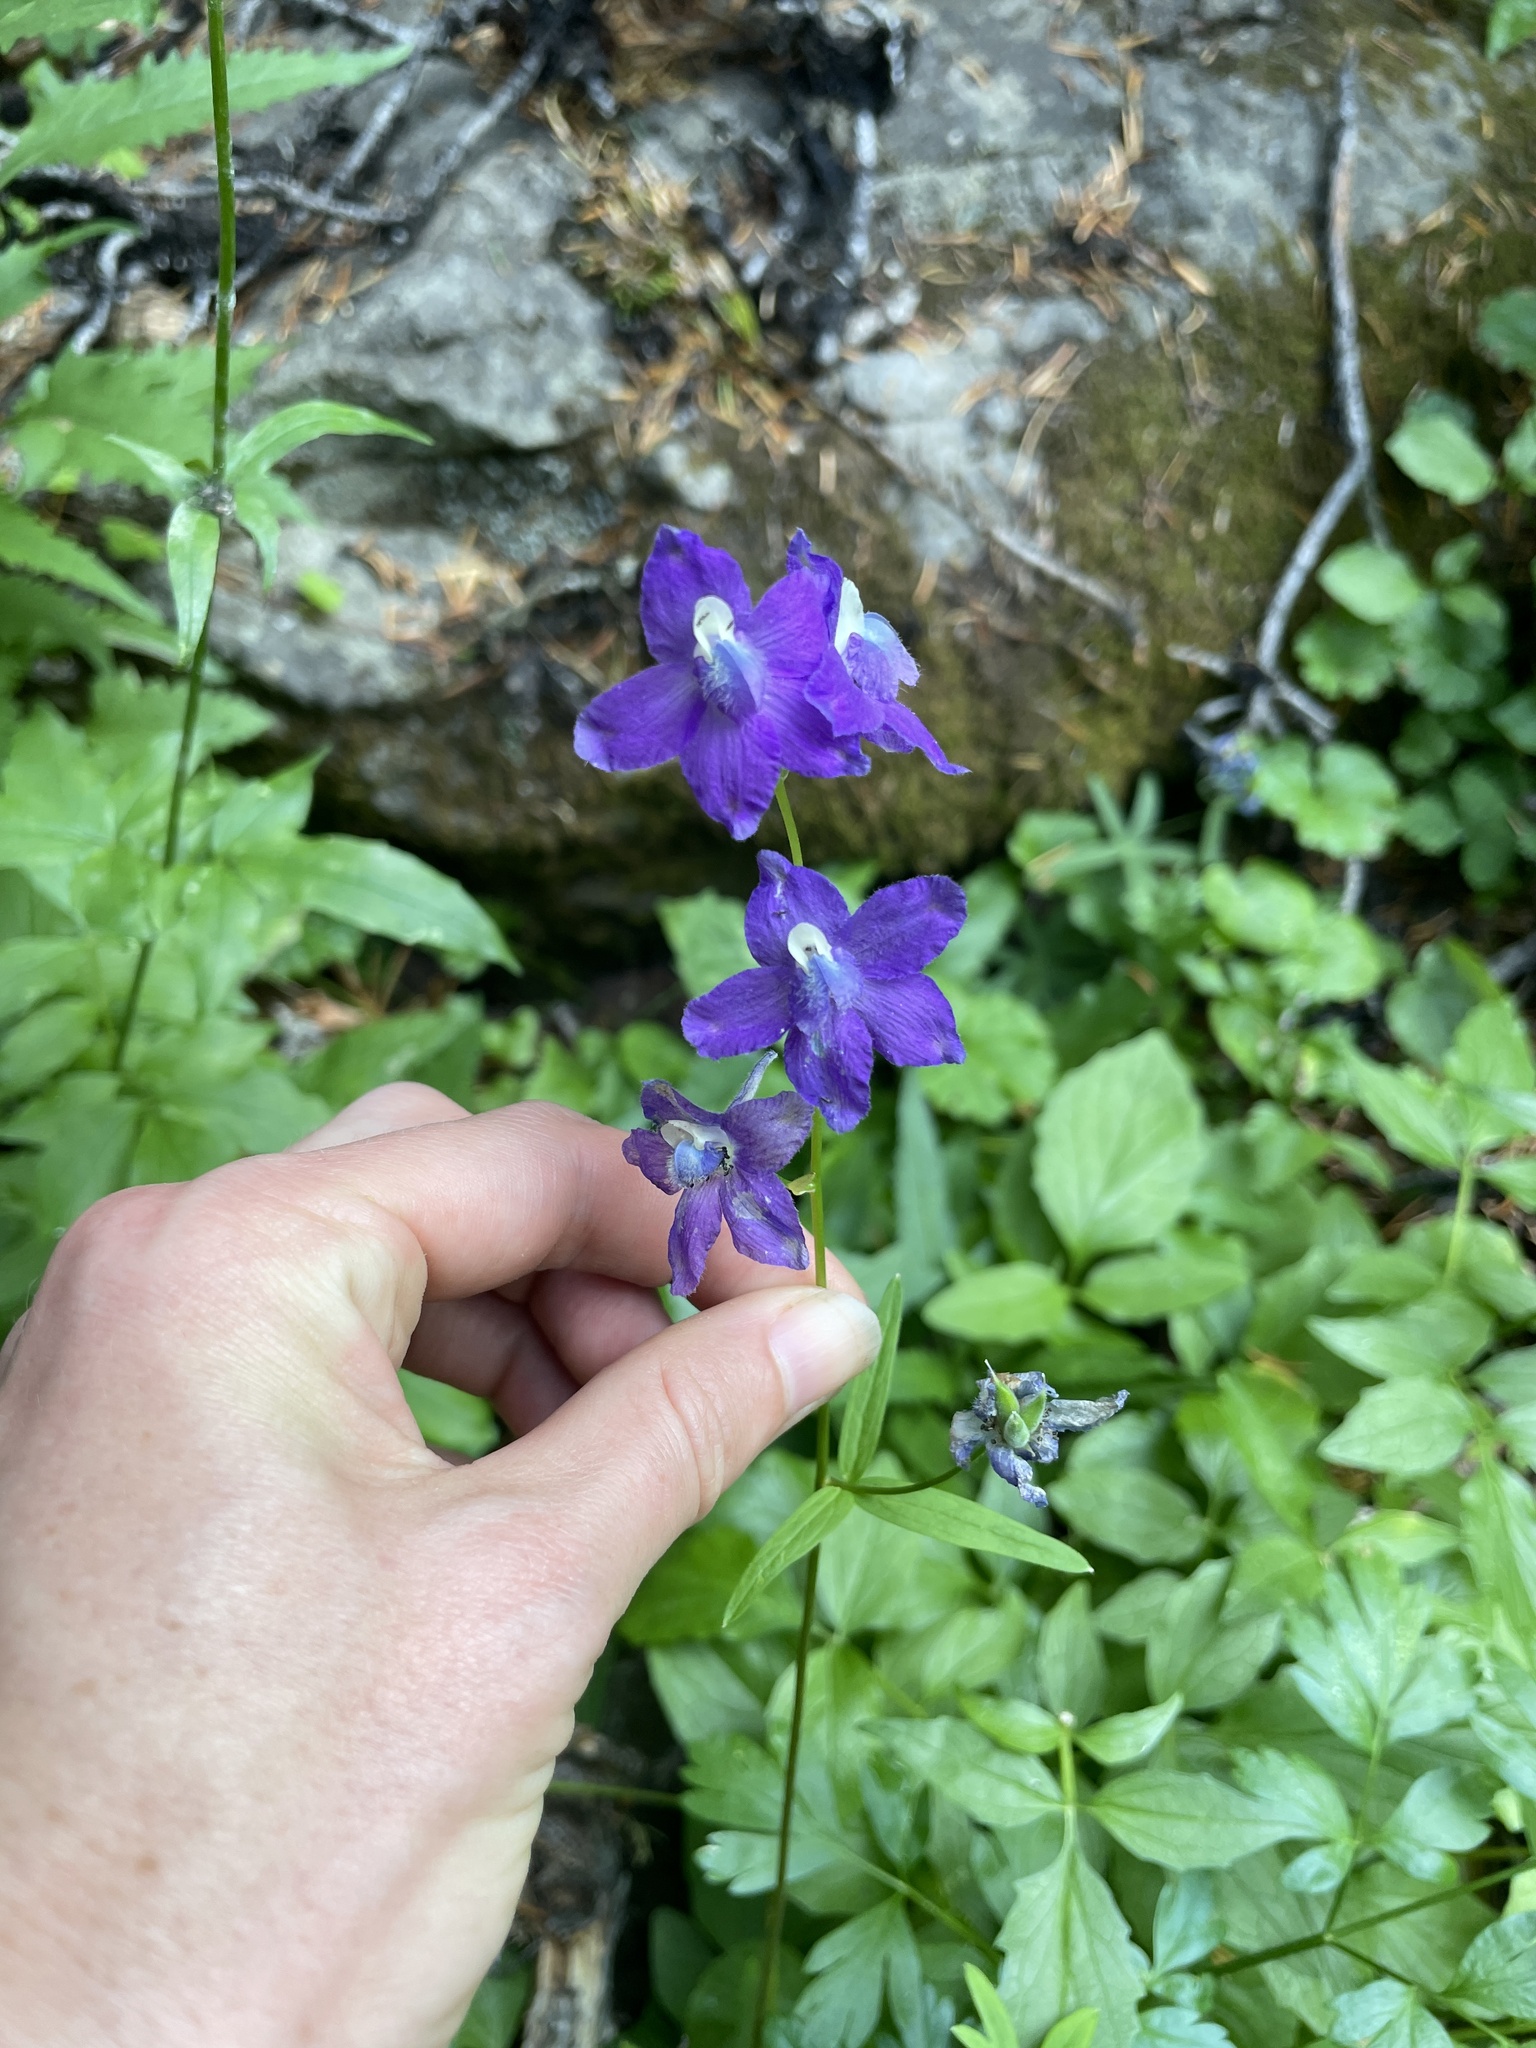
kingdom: Plantae
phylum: Tracheophyta
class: Magnoliopsida
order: Ranunculales
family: Ranunculaceae
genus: Delphinium
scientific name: Delphinium menziesii
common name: Menzies's larkspur
